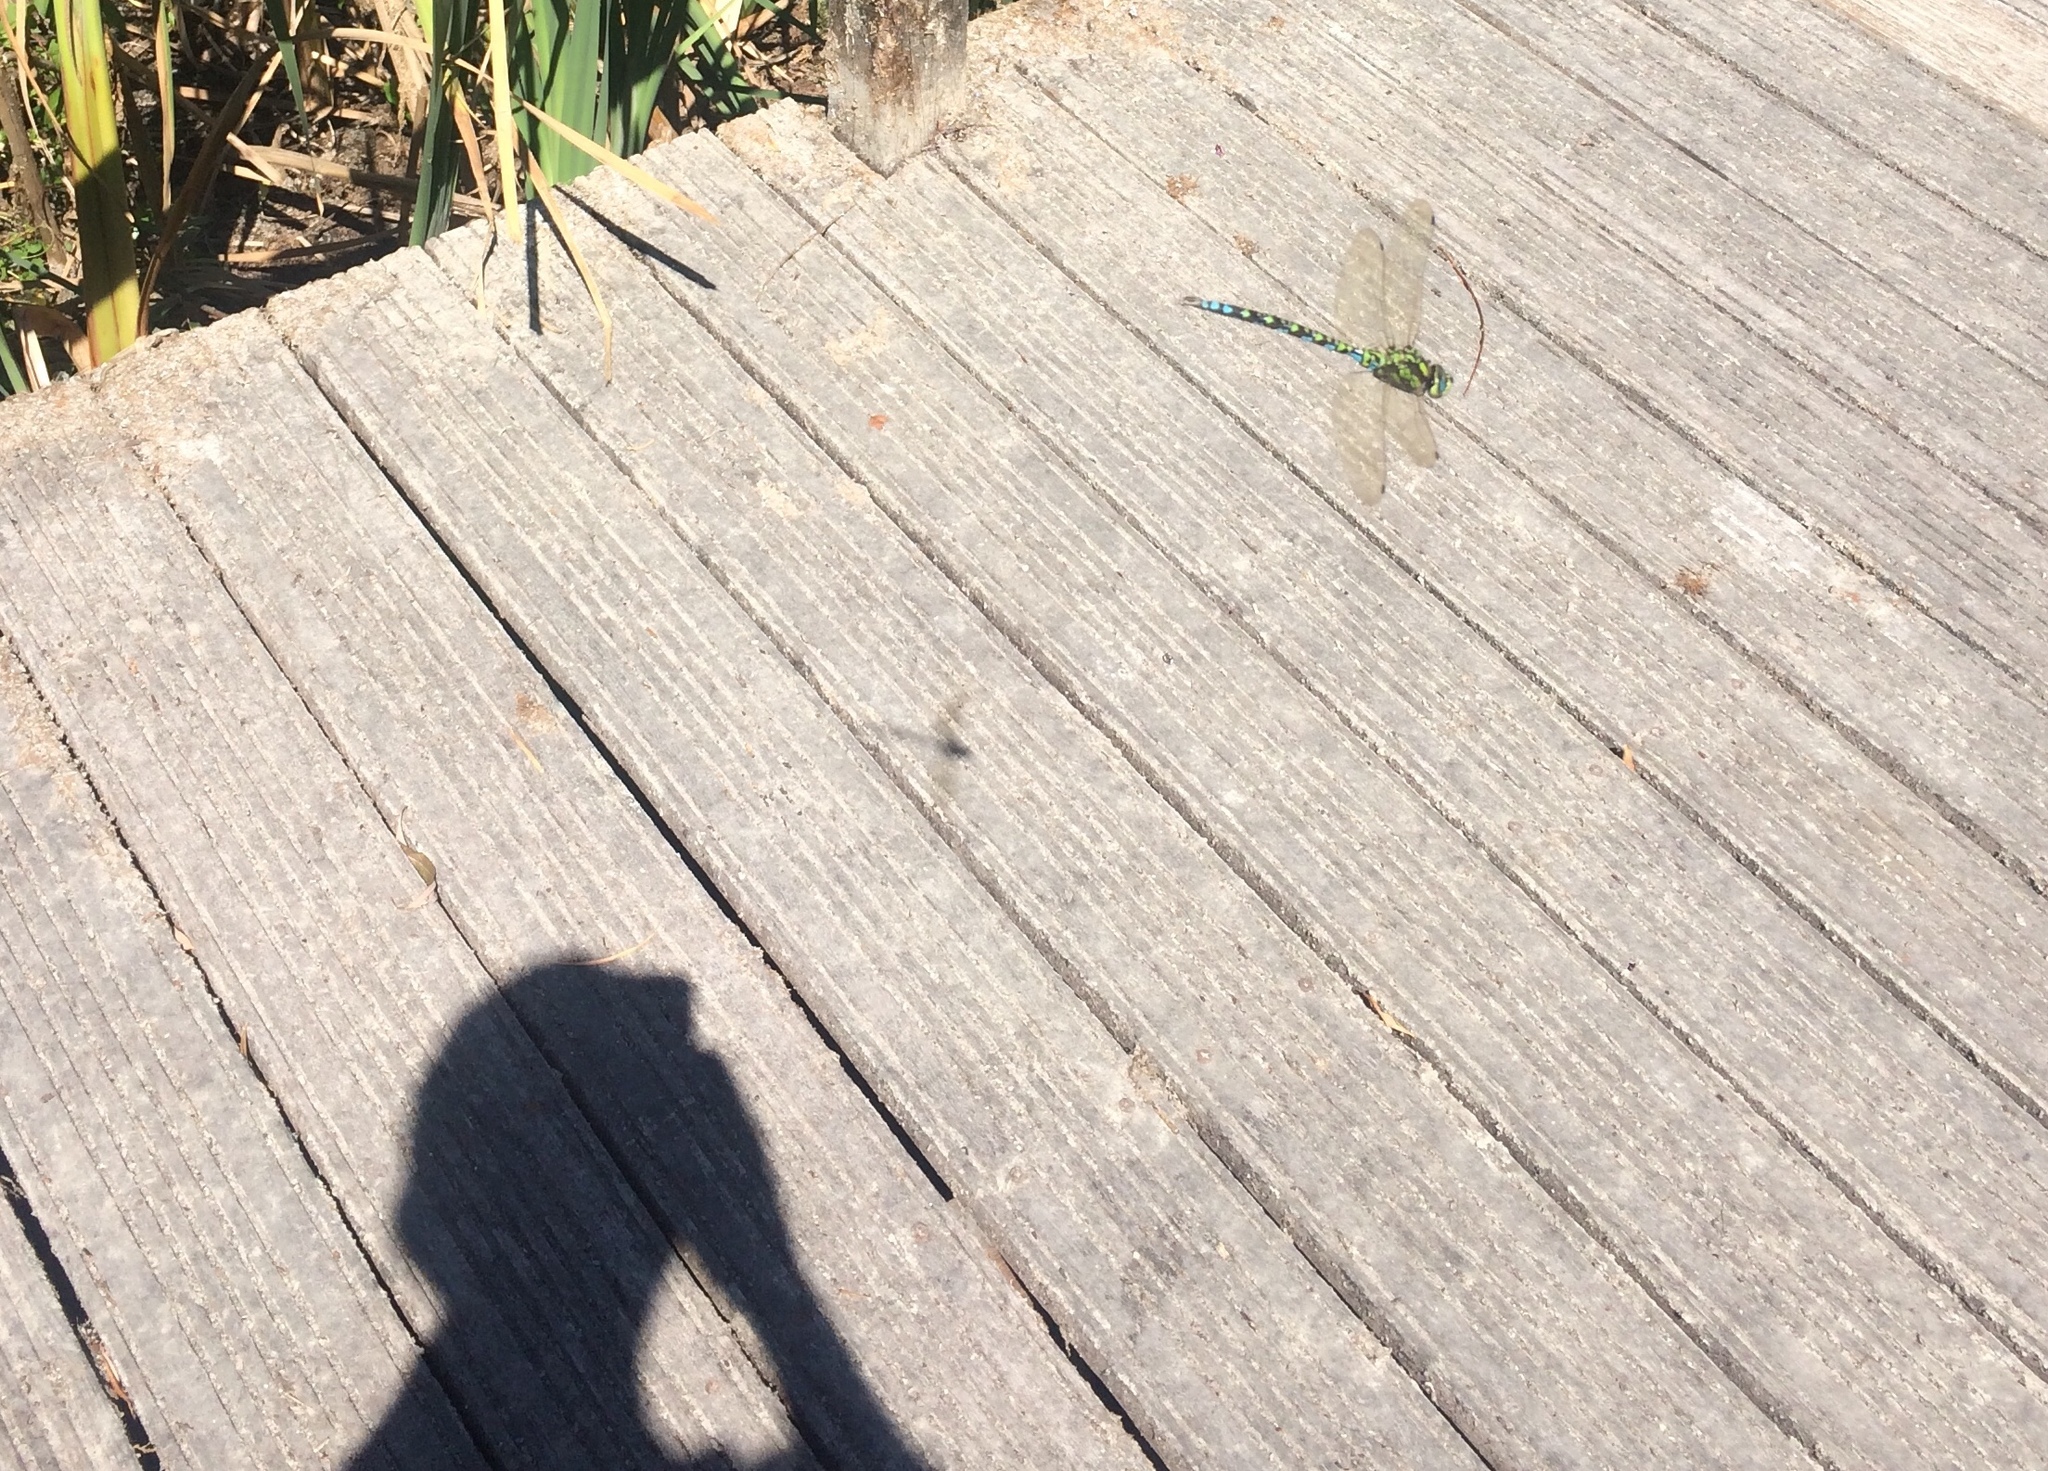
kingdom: Animalia
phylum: Arthropoda
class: Insecta
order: Odonata
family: Aeshnidae
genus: Aeshna
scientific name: Aeshna cyanea
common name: Southern hawker
